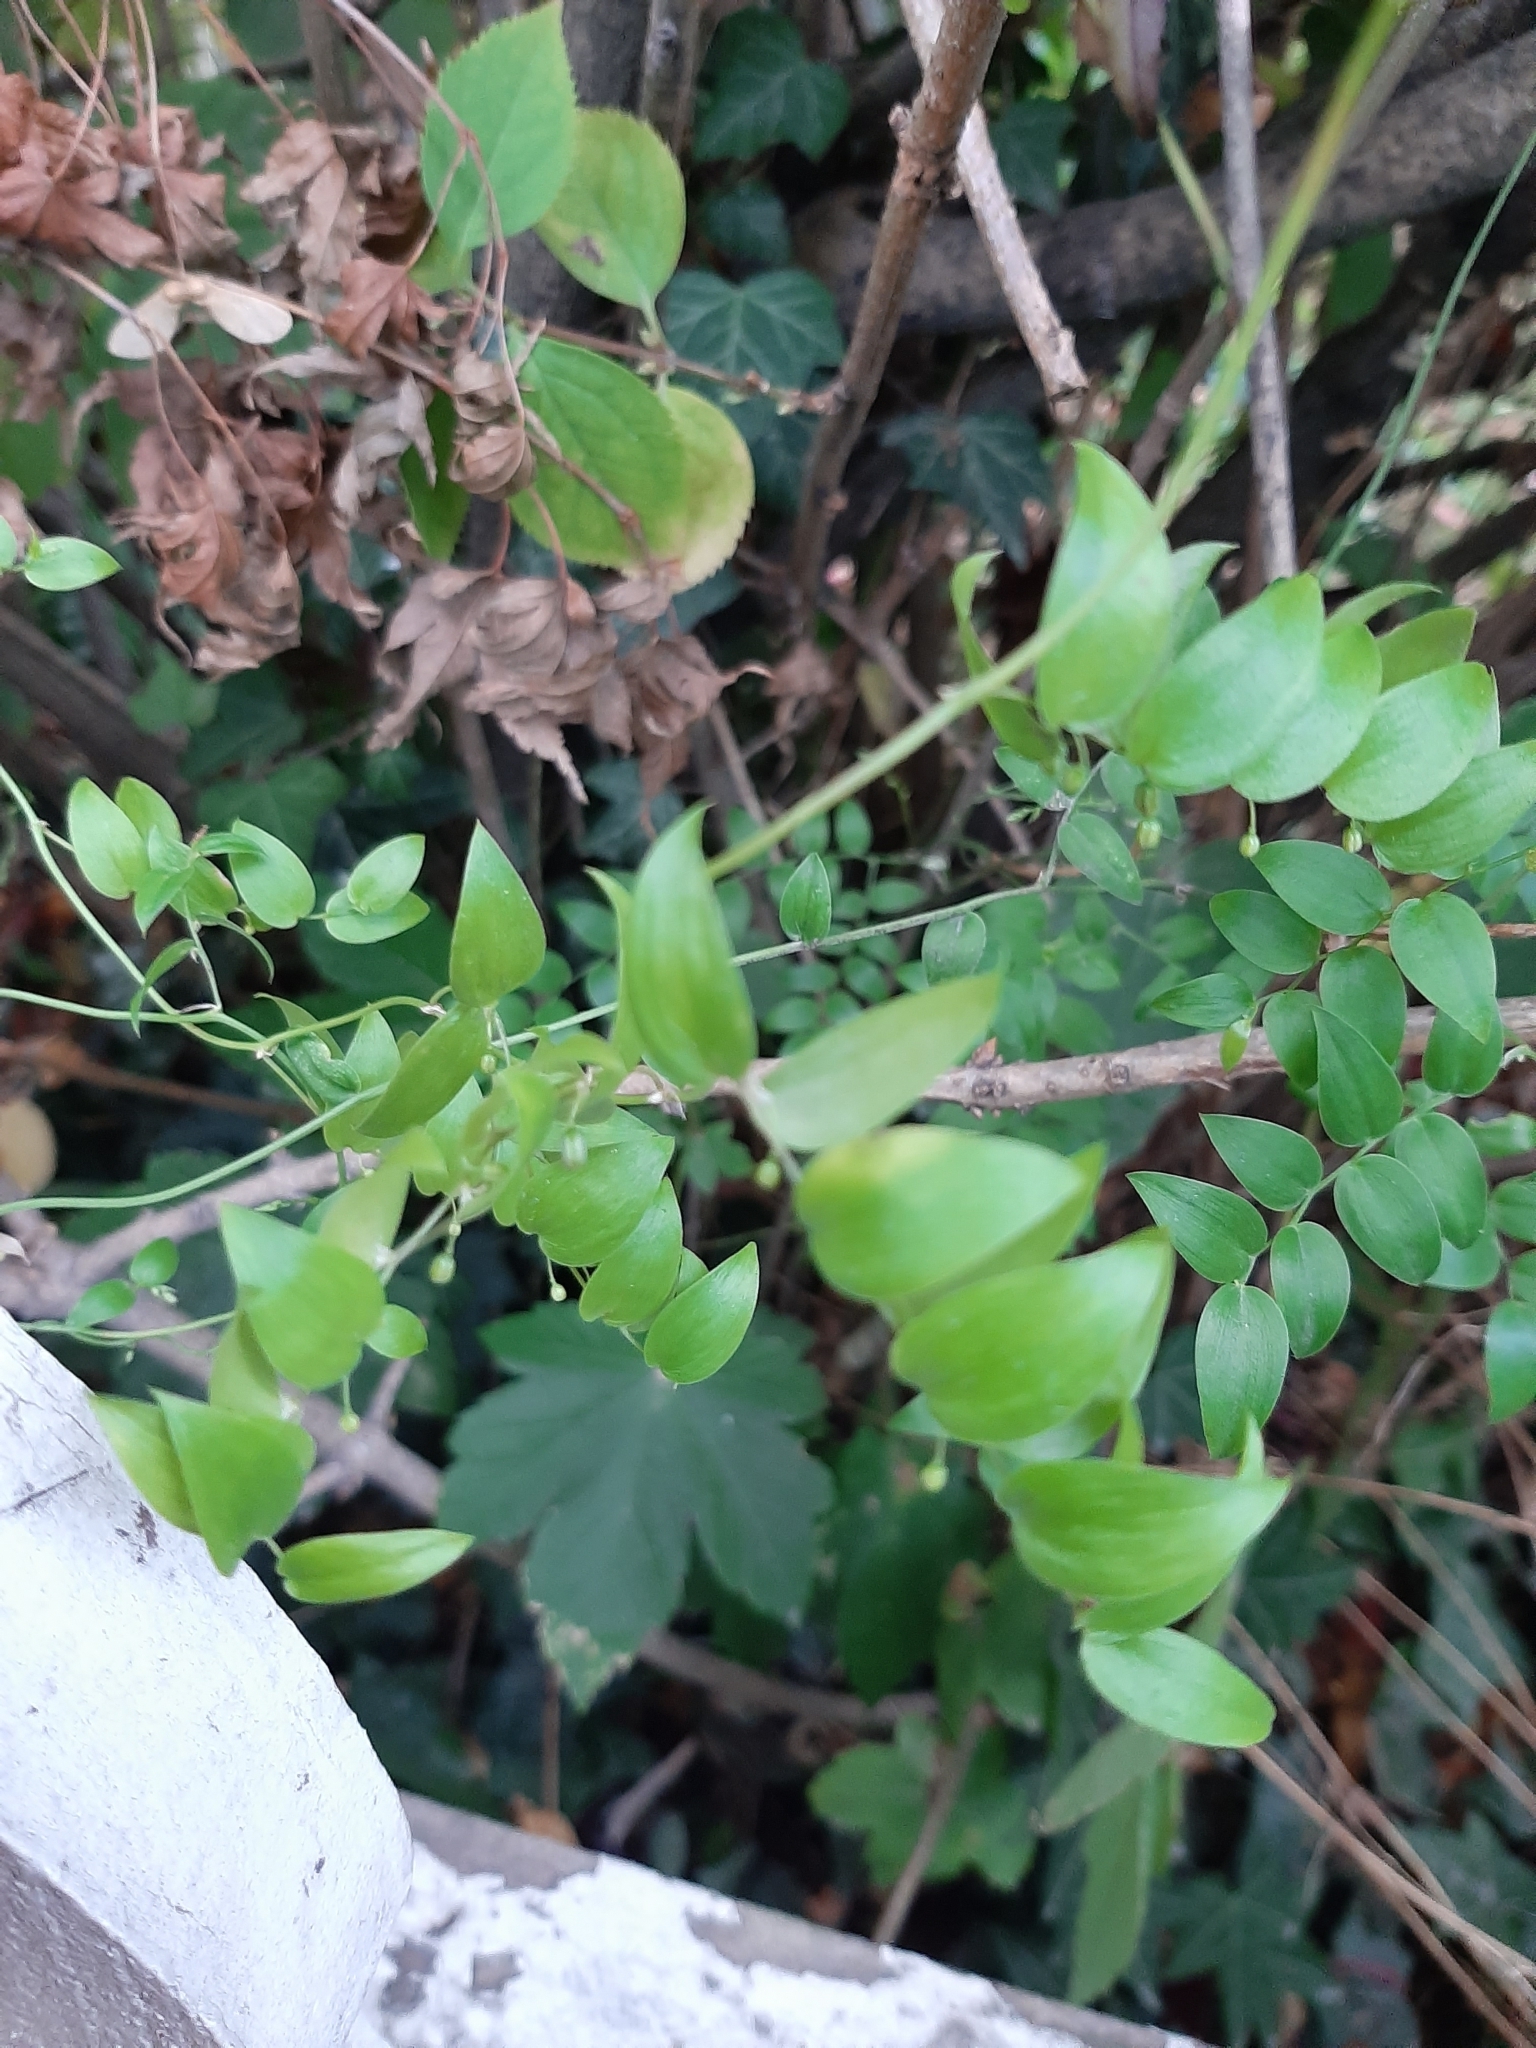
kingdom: Plantae
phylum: Tracheophyta
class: Liliopsida
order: Asparagales
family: Asparagaceae
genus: Asparagus
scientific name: Asparagus asparagoides
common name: African asparagus fern
